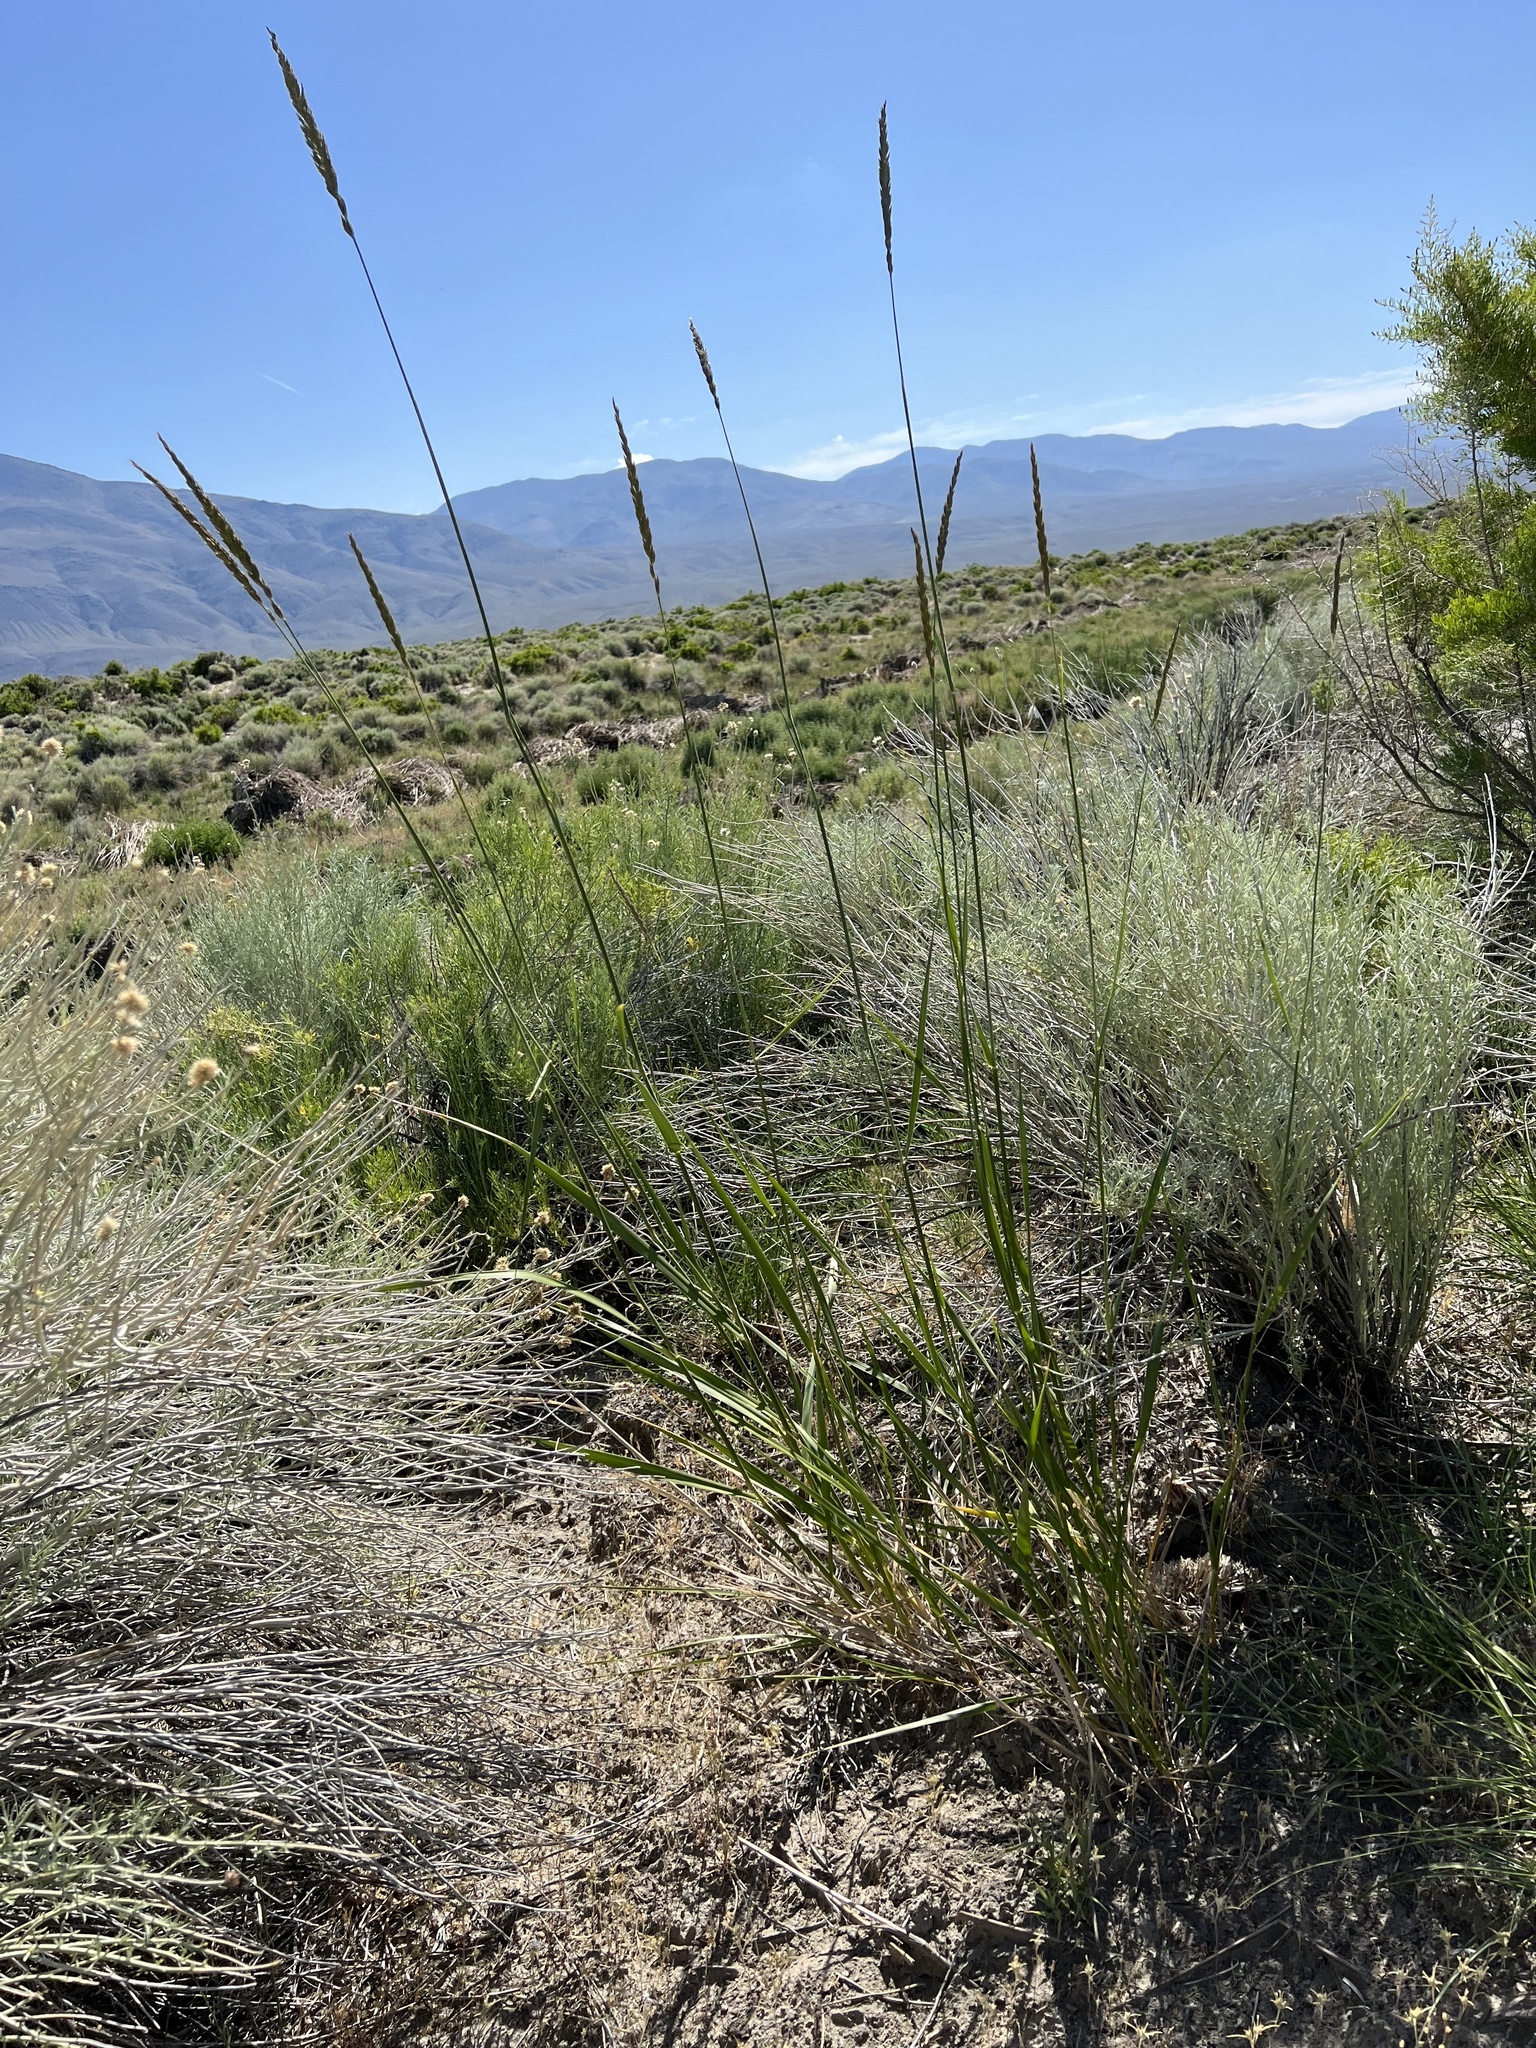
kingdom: Plantae
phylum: Tracheophyta
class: Liliopsida
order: Poales
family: Poaceae
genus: Leymus
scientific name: Leymus cinereus
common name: Basin wild rye
